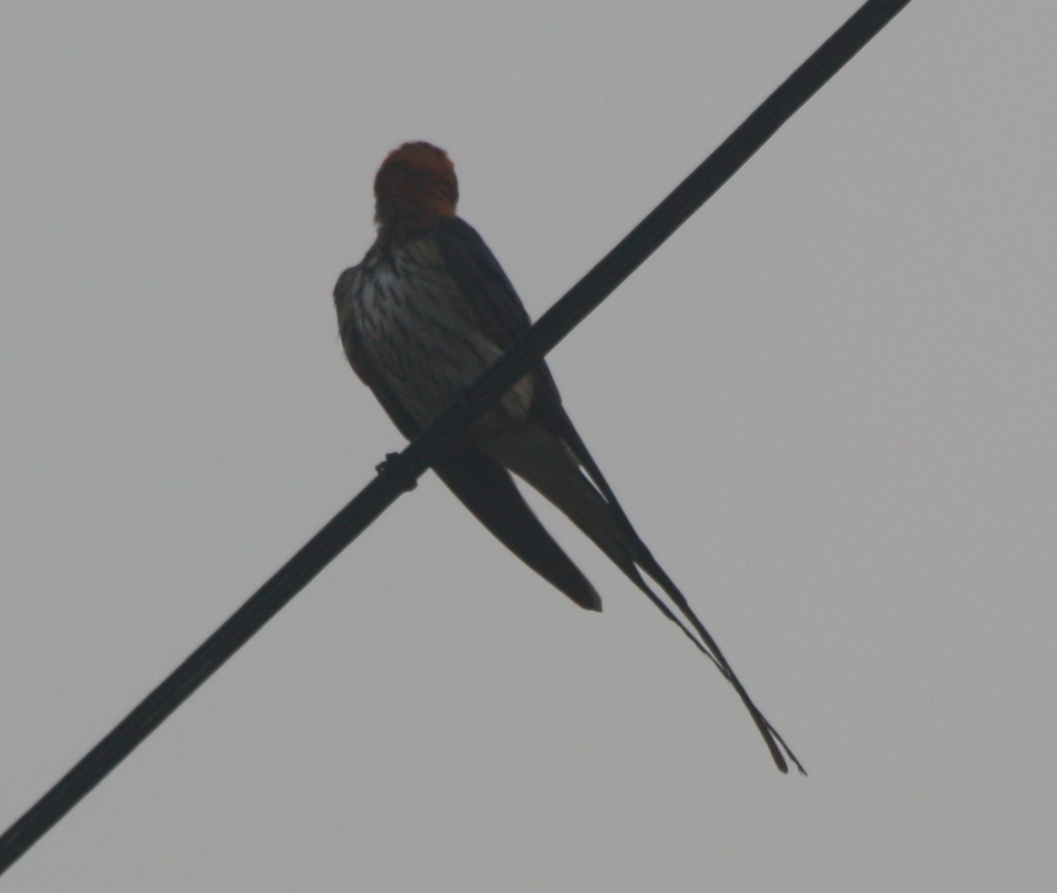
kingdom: Animalia
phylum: Chordata
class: Aves
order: Passeriformes
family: Hirundinidae
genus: Cecropis
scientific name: Cecropis abyssinica
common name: Lesser striped-swallow
